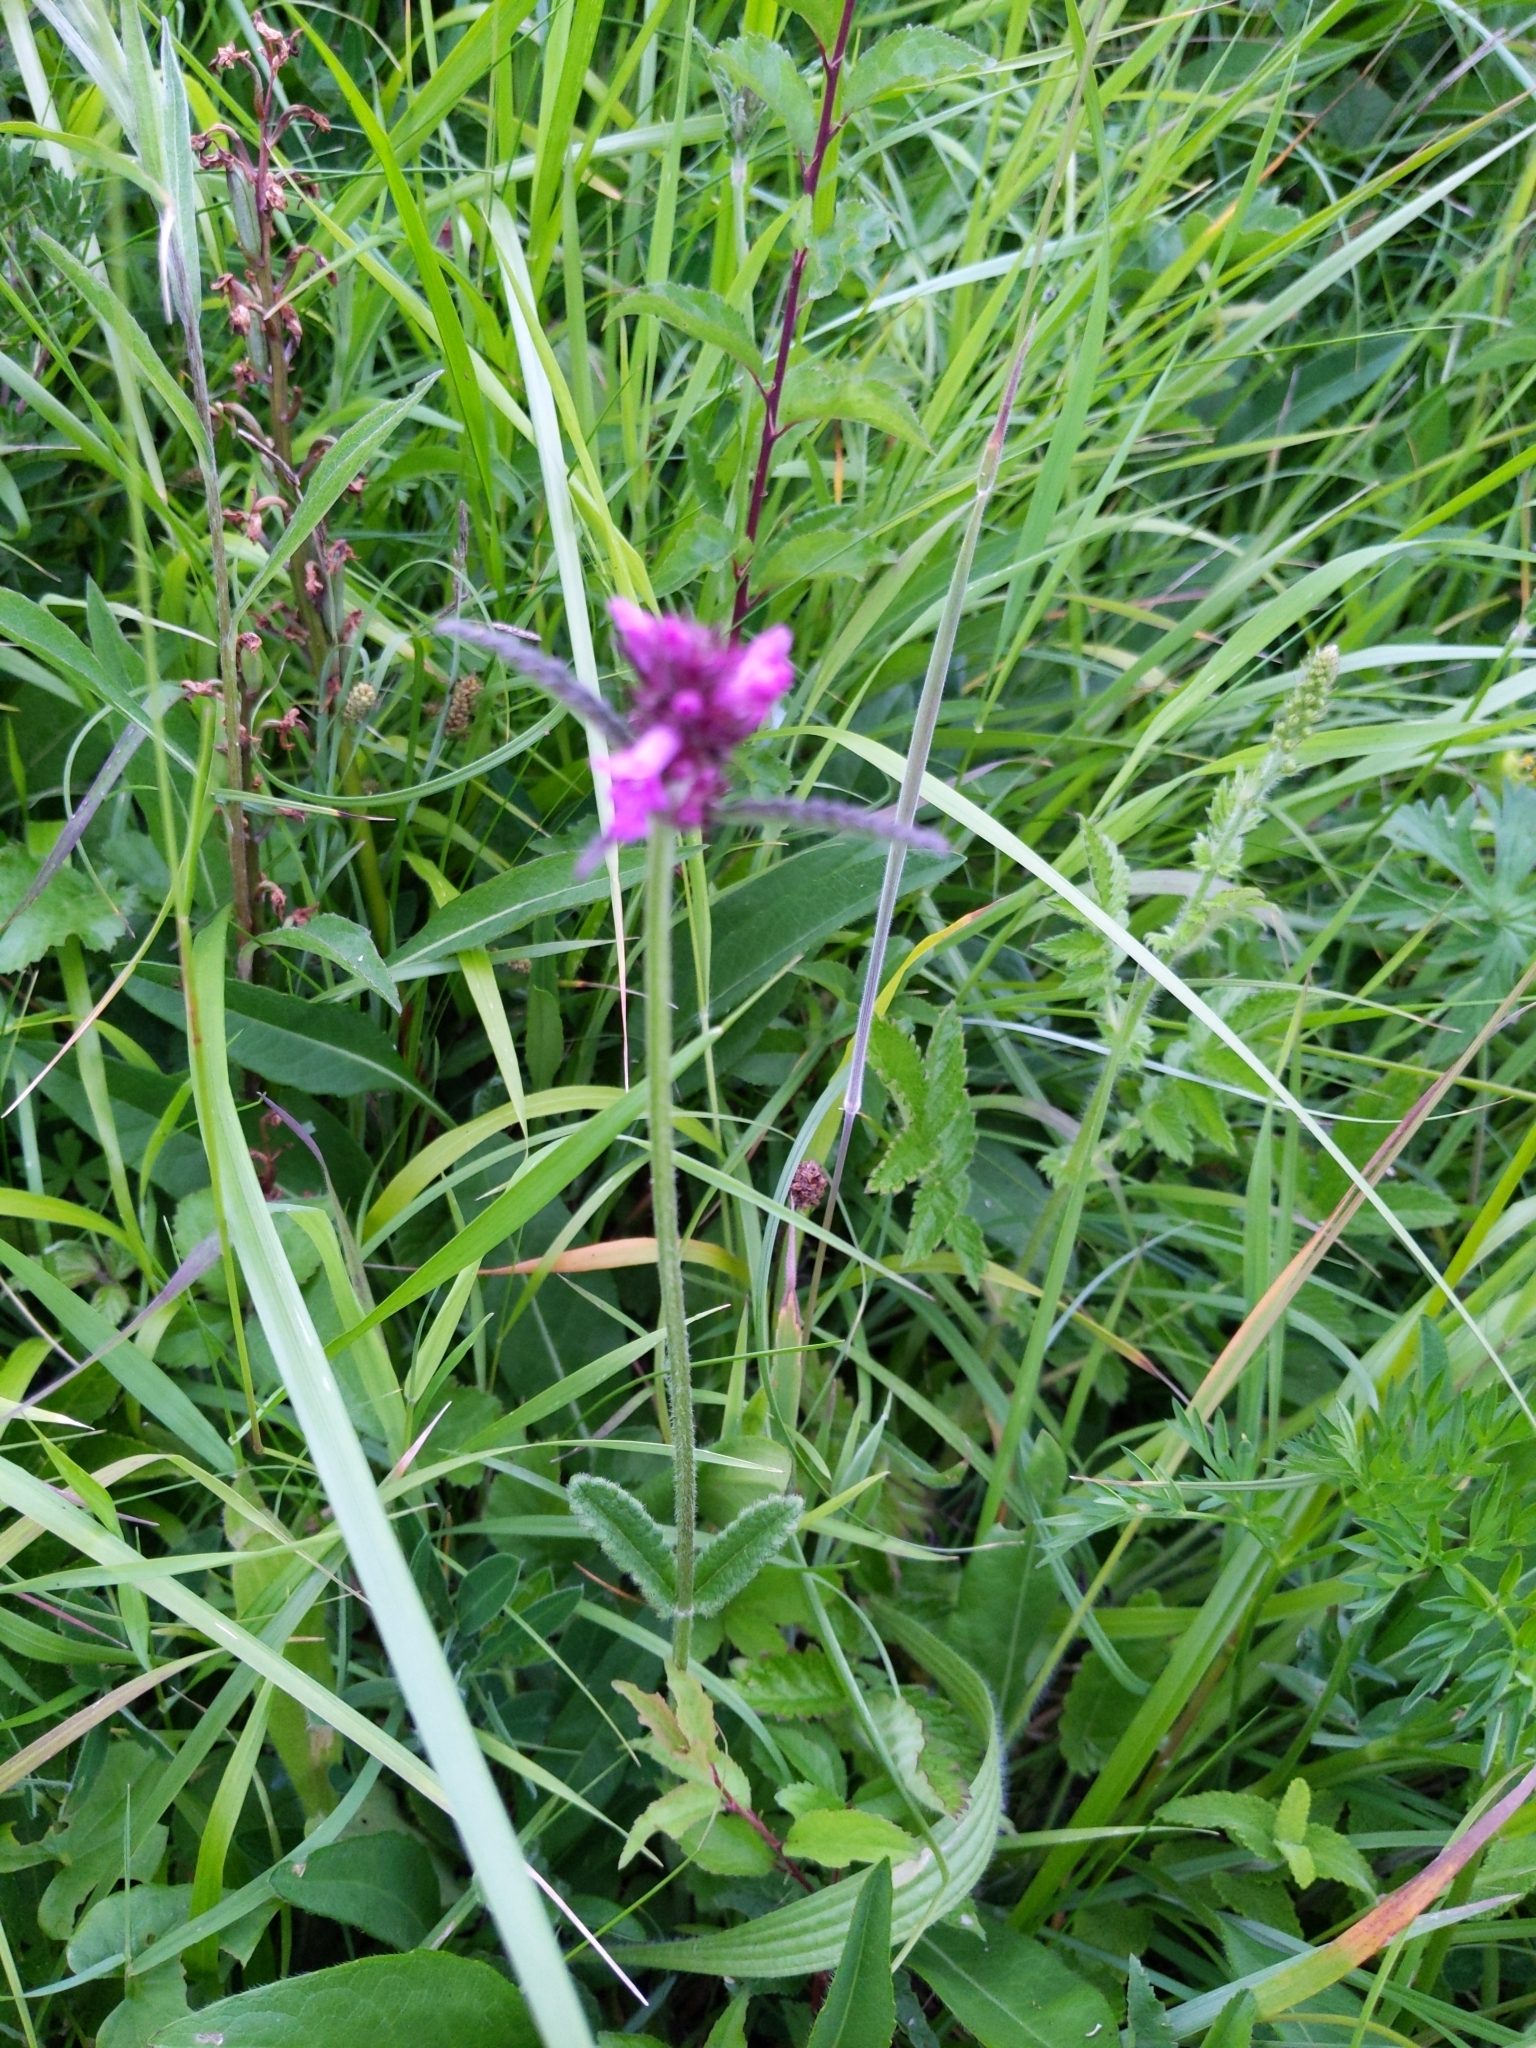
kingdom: Plantae
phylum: Tracheophyta
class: Magnoliopsida
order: Lamiales
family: Lamiaceae
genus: Betonica
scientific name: Betonica officinalis
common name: Bishop's-wort
